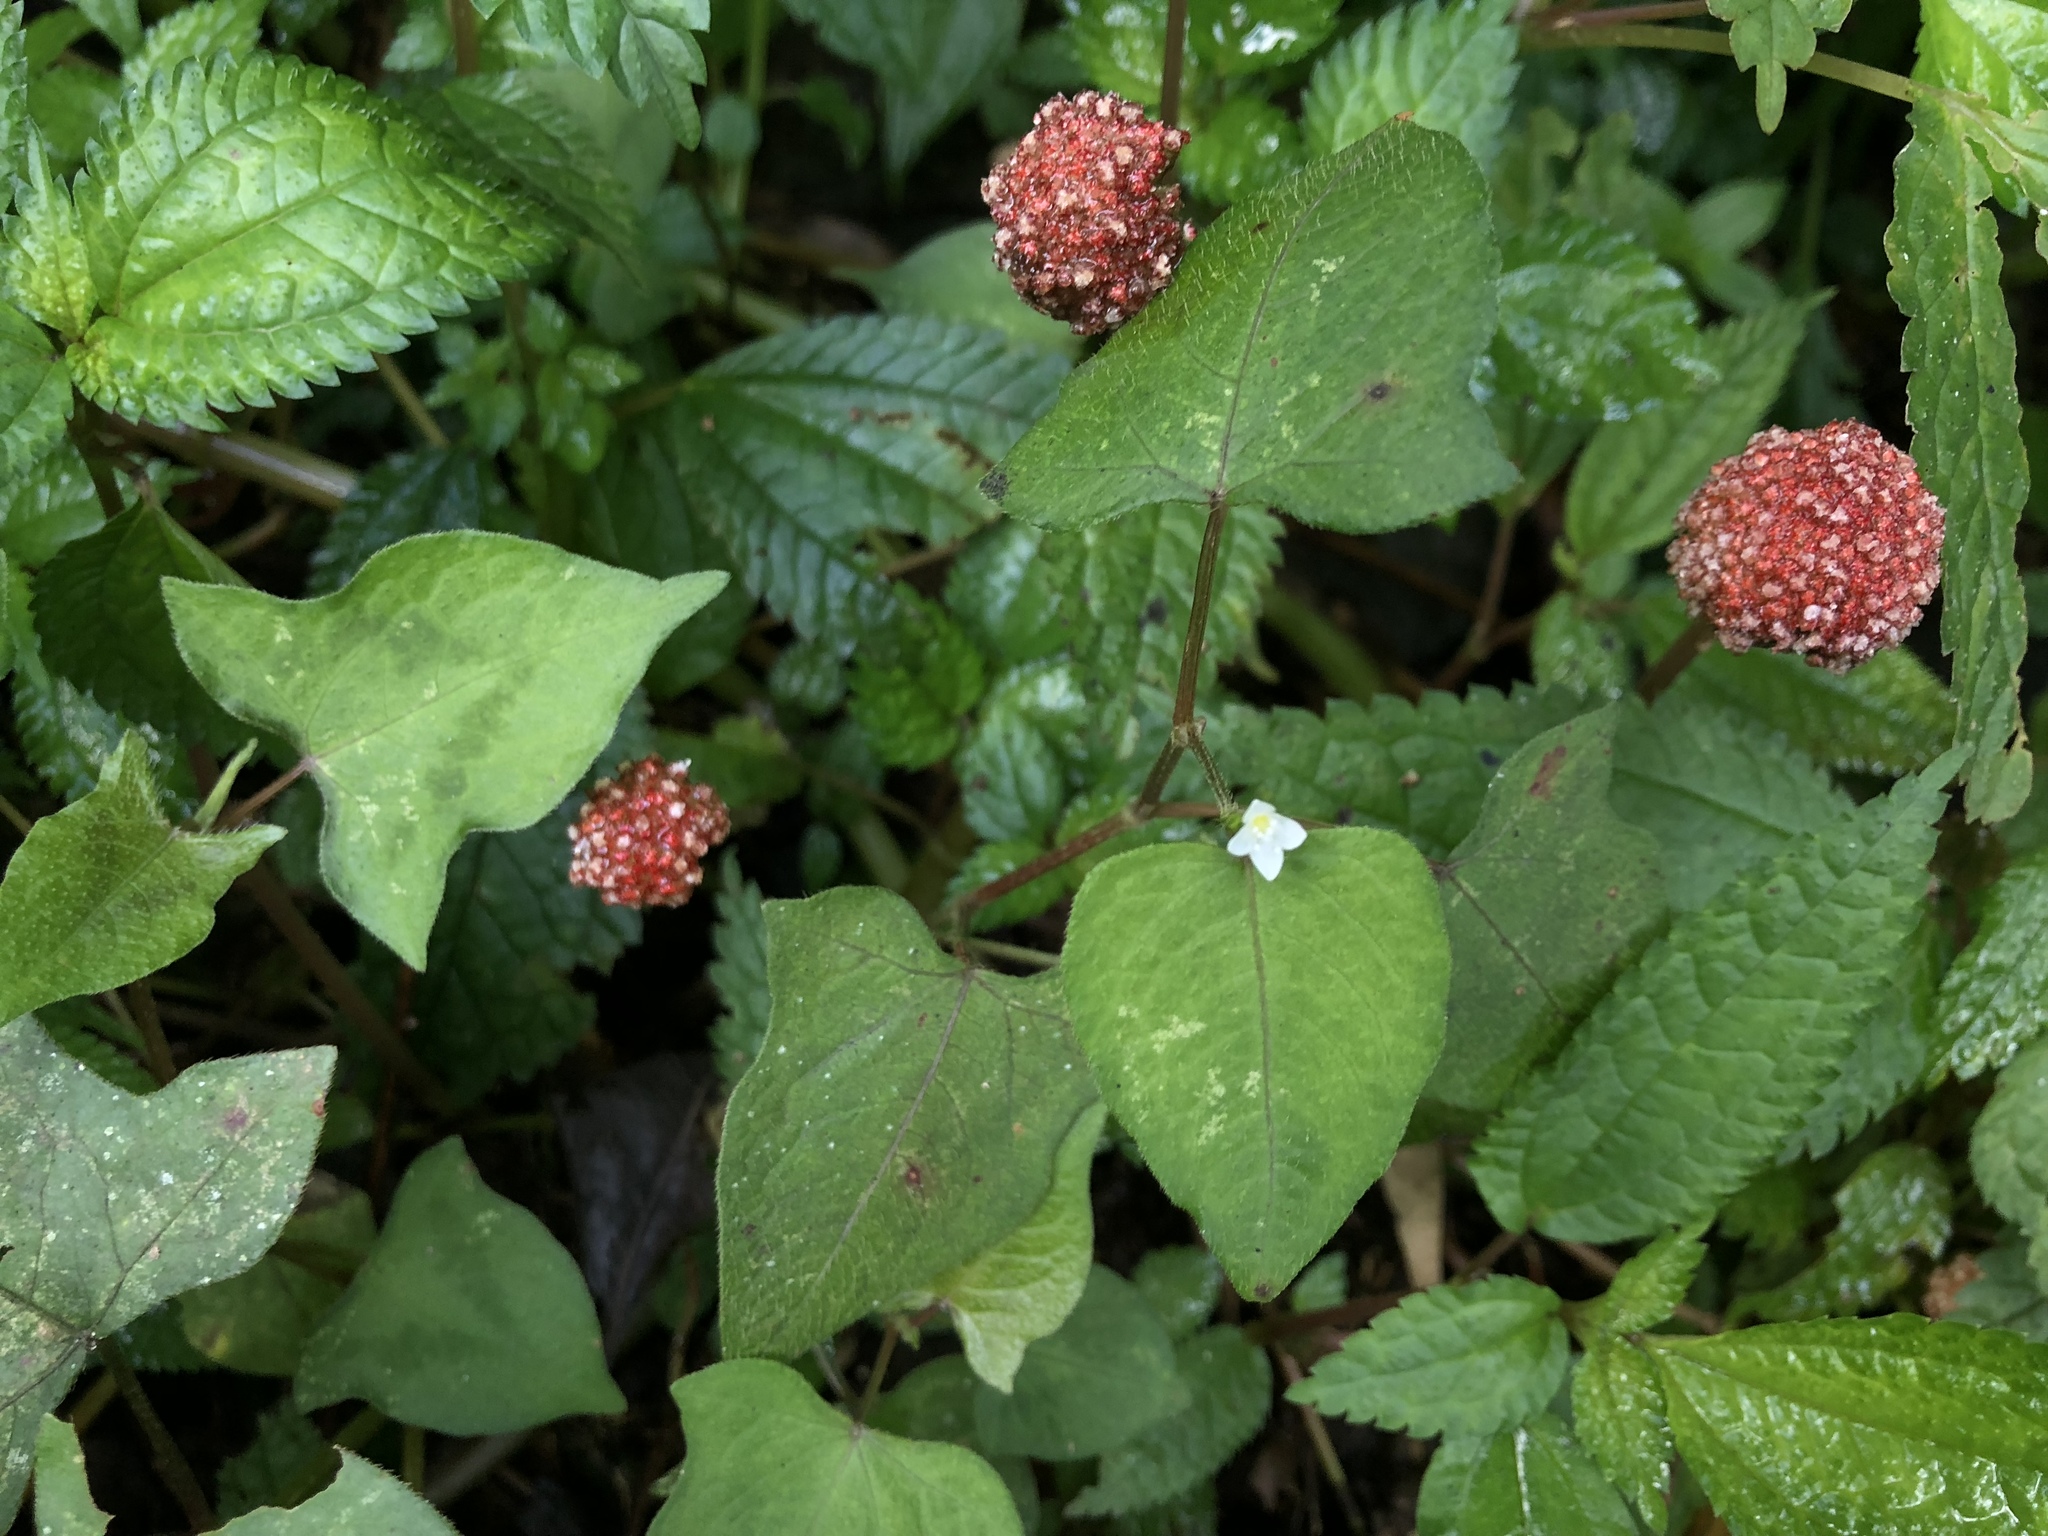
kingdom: Plantae
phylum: Tracheophyta
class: Magnoliopsida
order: Caryophyllales
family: Polygonaceae
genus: Persicaria
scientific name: Persicaria biconvexa
